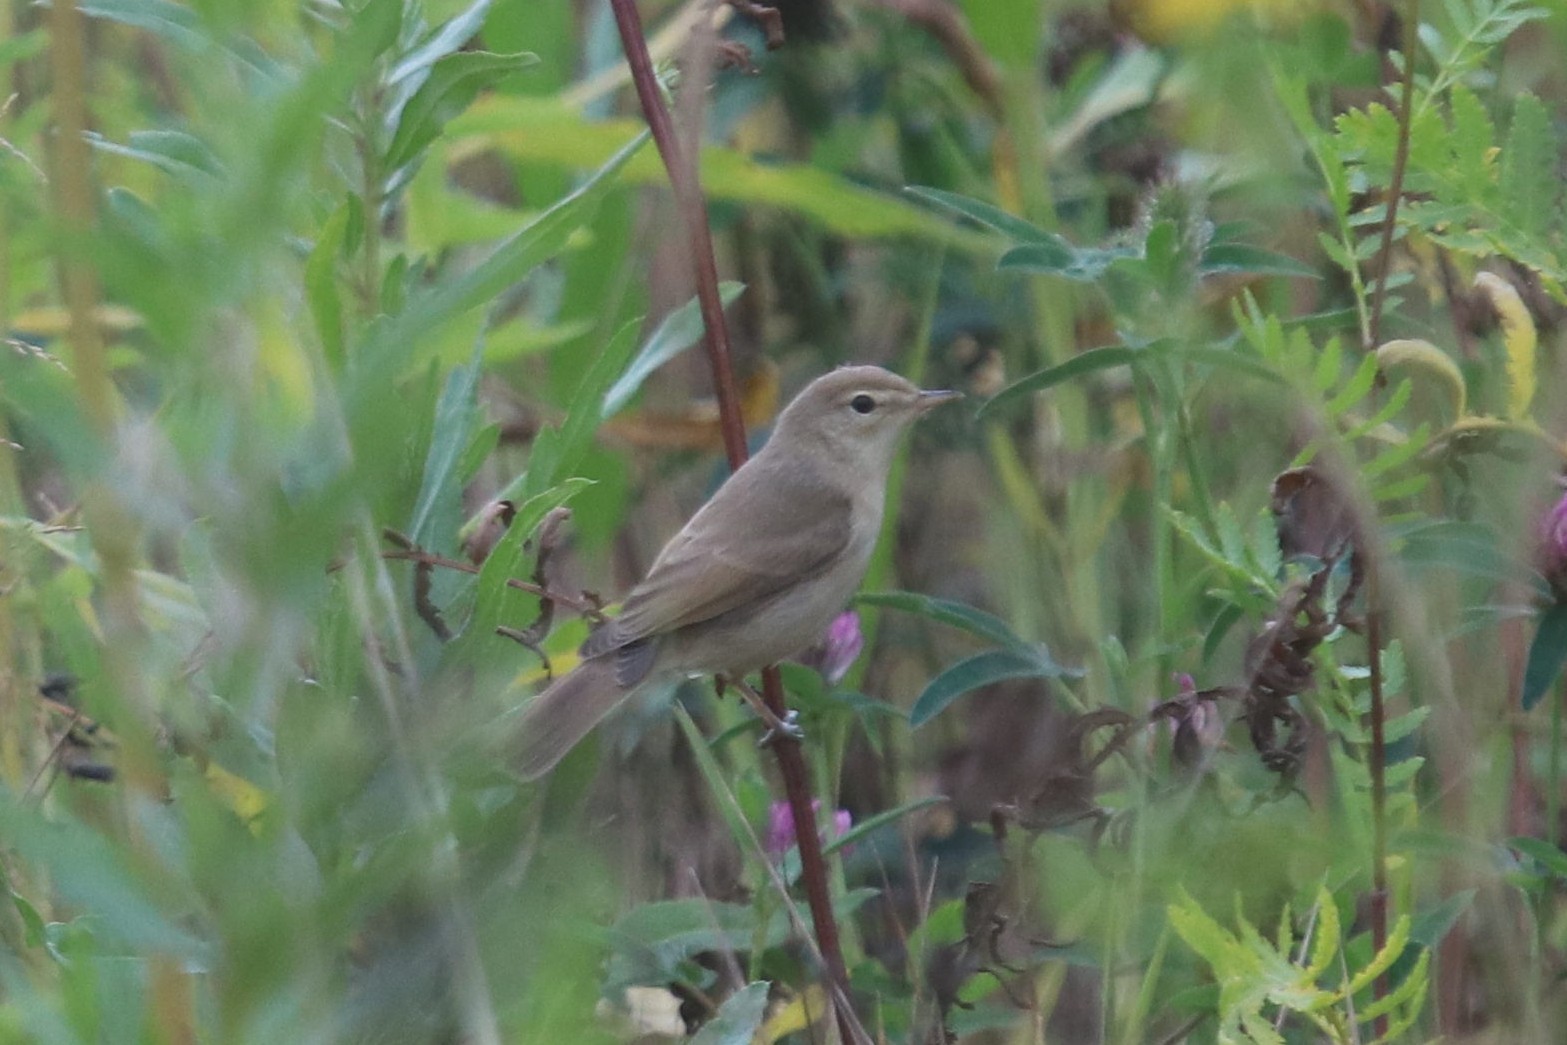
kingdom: Animalia
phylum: Chordata
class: Aves
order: Passeriformes
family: Acrocephalidae
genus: Iduna
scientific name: Iduna caligata
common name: Booted warbler
